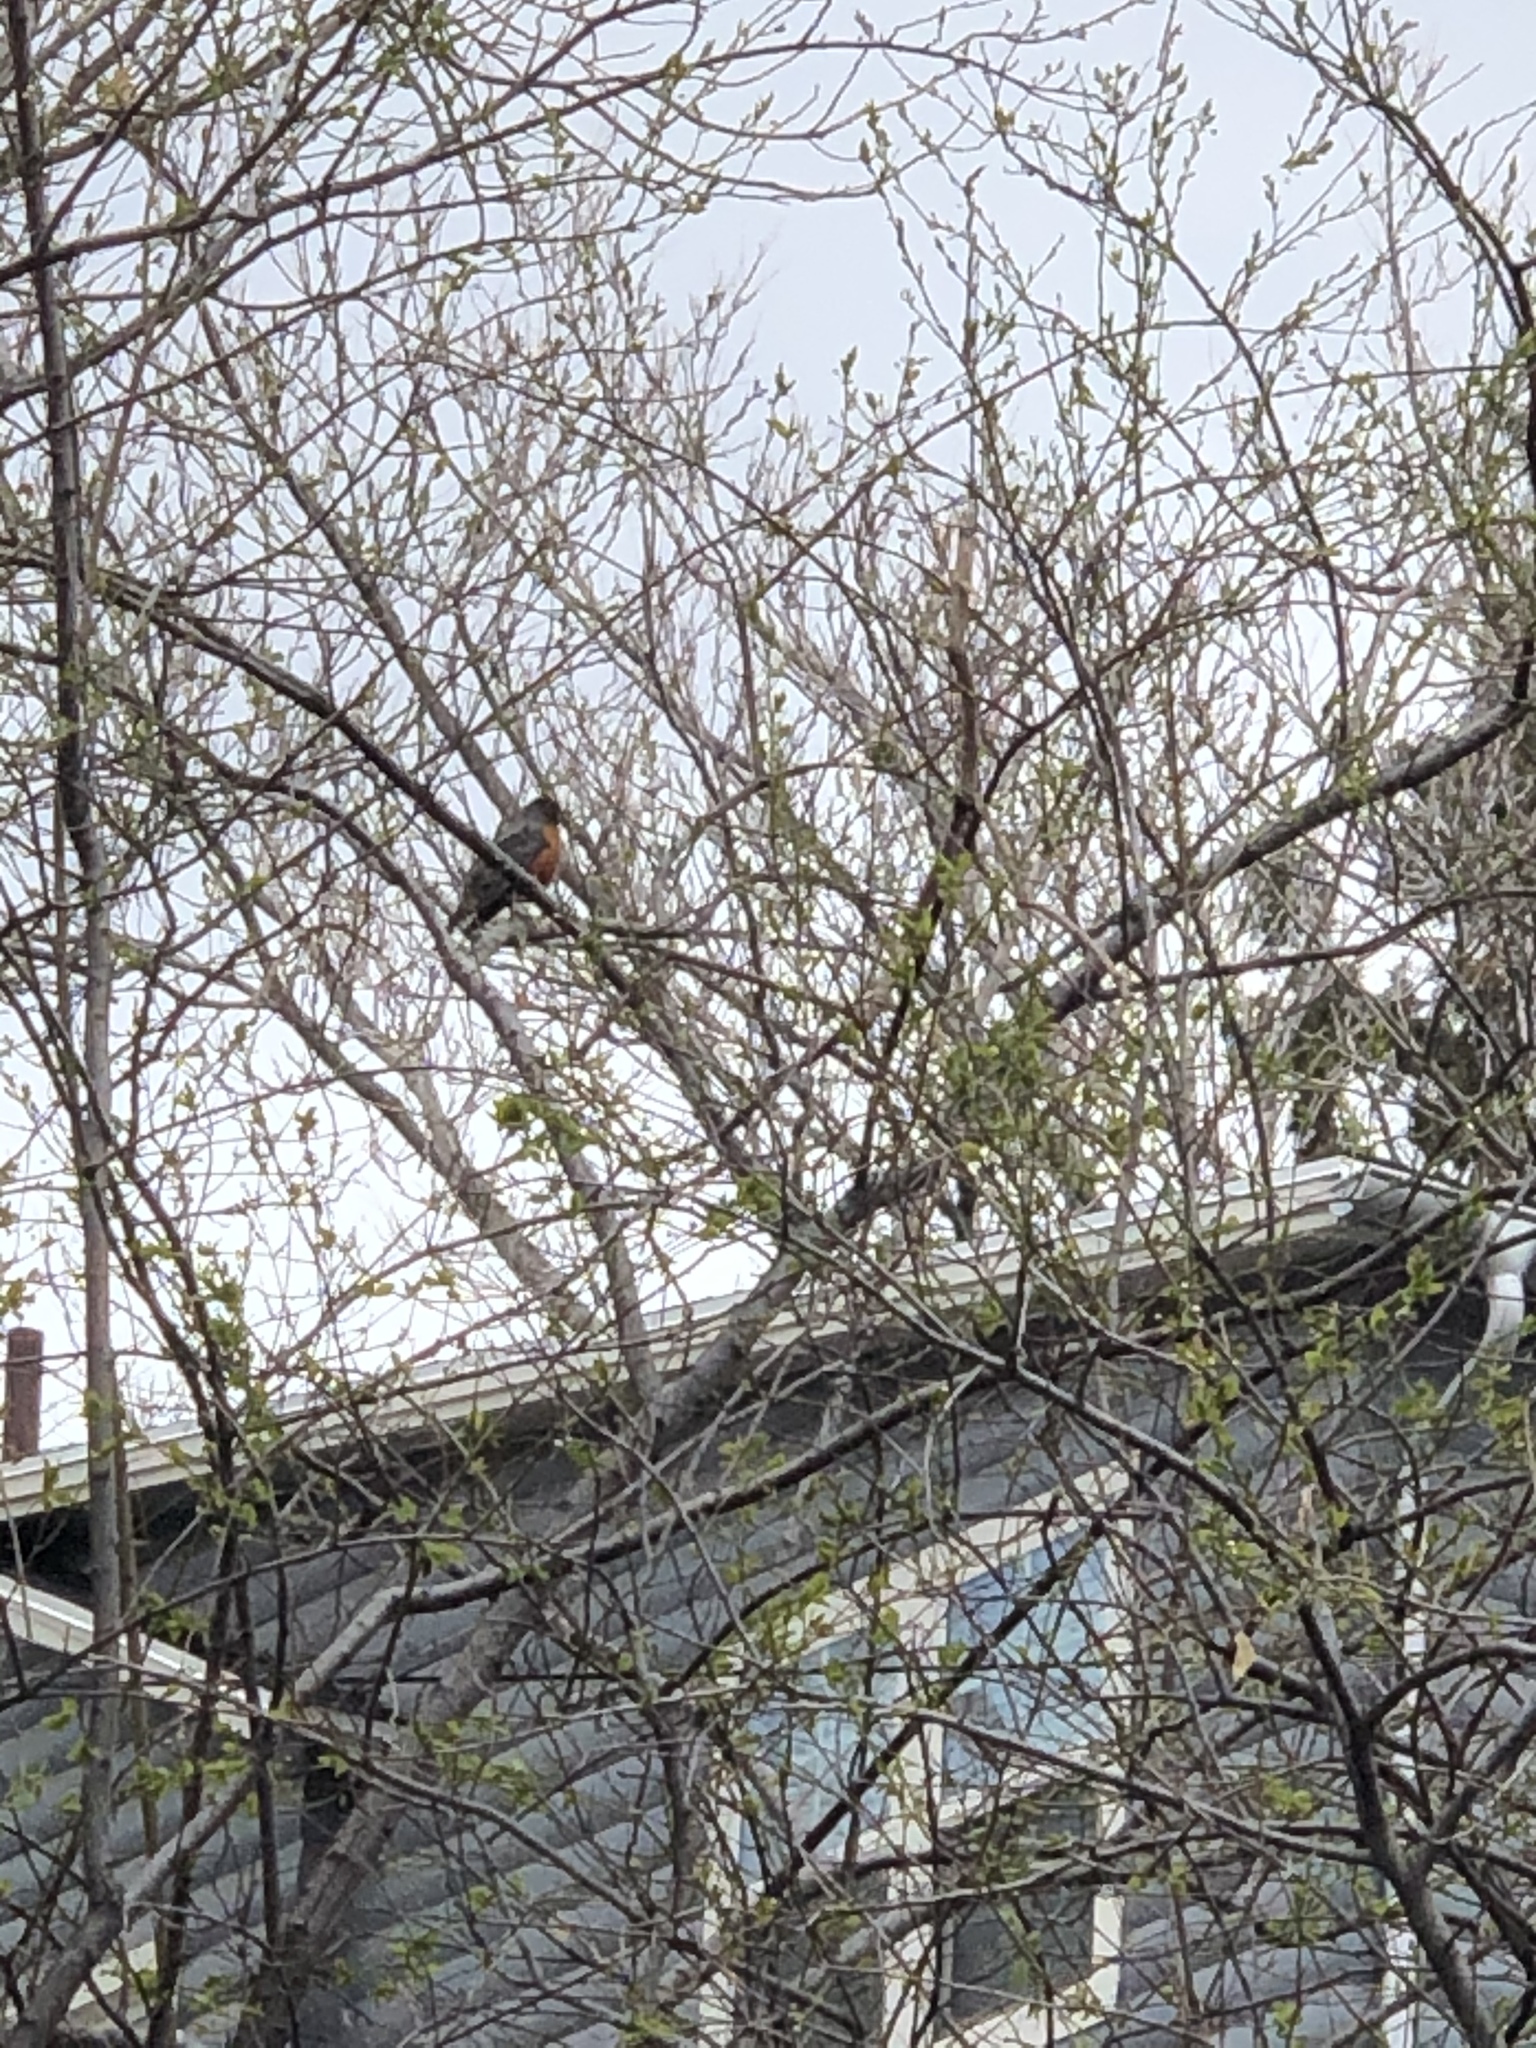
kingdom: Animalia
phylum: Chordata
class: Aves
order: Passeriformes
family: Turdidae
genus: Turdus
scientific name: Turdus migratorius
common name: American robin
